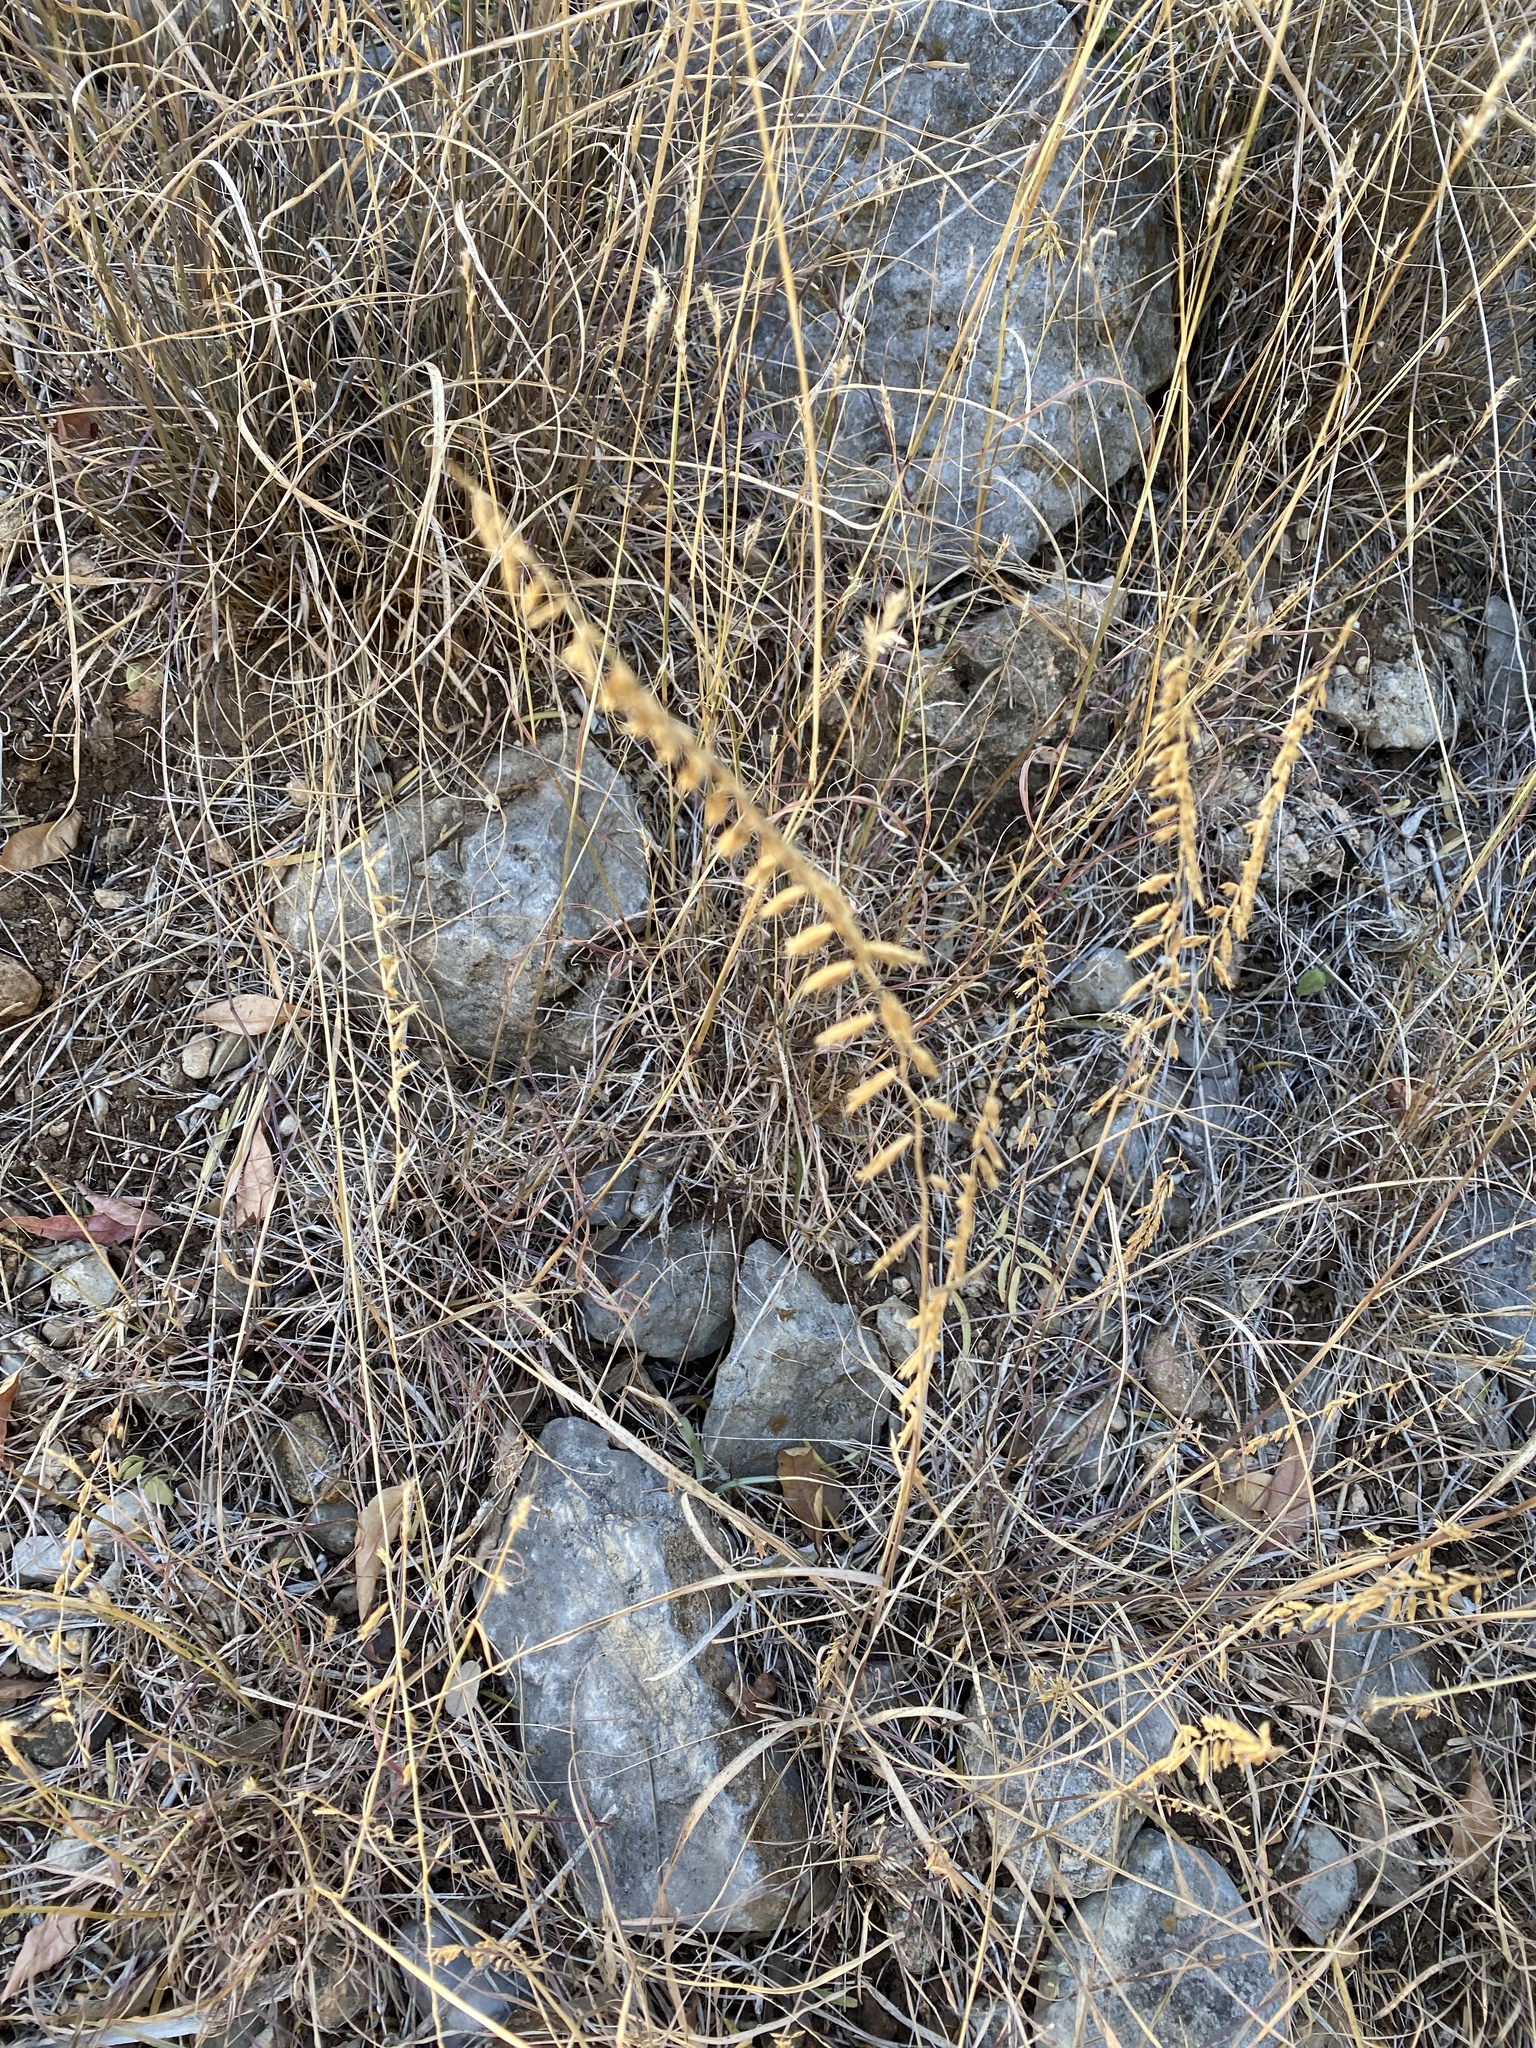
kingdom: Plantae
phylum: Tracheophyta
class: Liliopsida
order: Poales
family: Poaceae
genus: Bouteloua
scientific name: Bouteloua curtipendula
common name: Side-oats grama
